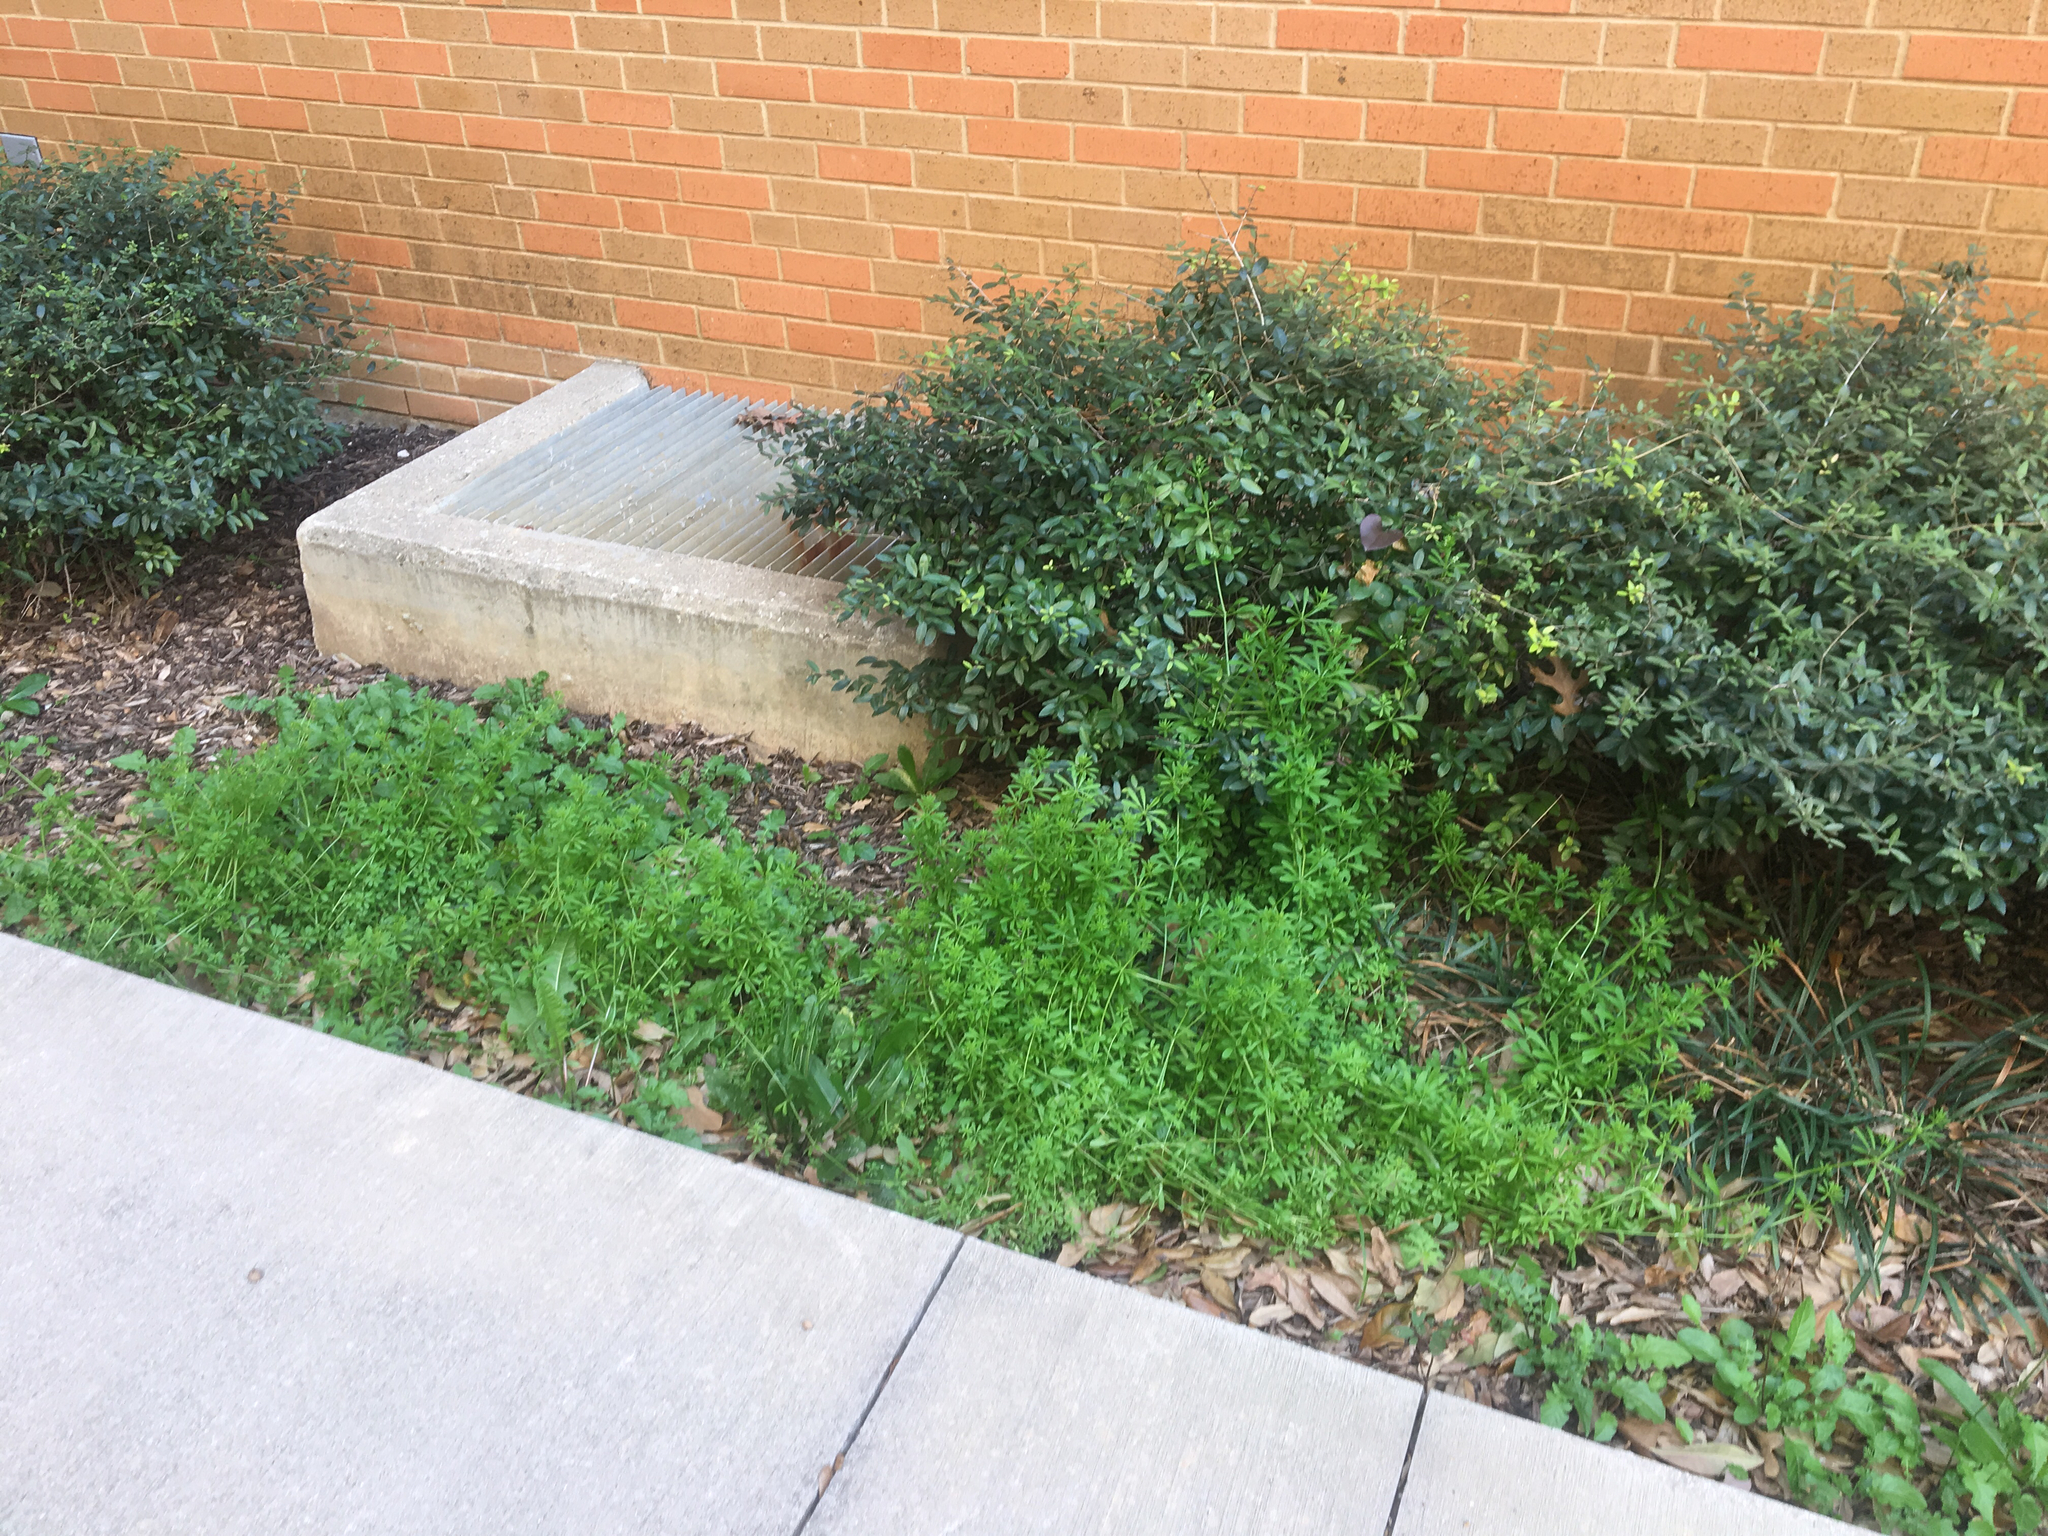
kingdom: Plantae
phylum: Tracheophyta
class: Magnoliopsida
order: Gentianales
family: Rubiaceae
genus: Galium
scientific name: Galium aparine
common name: Cleavers
